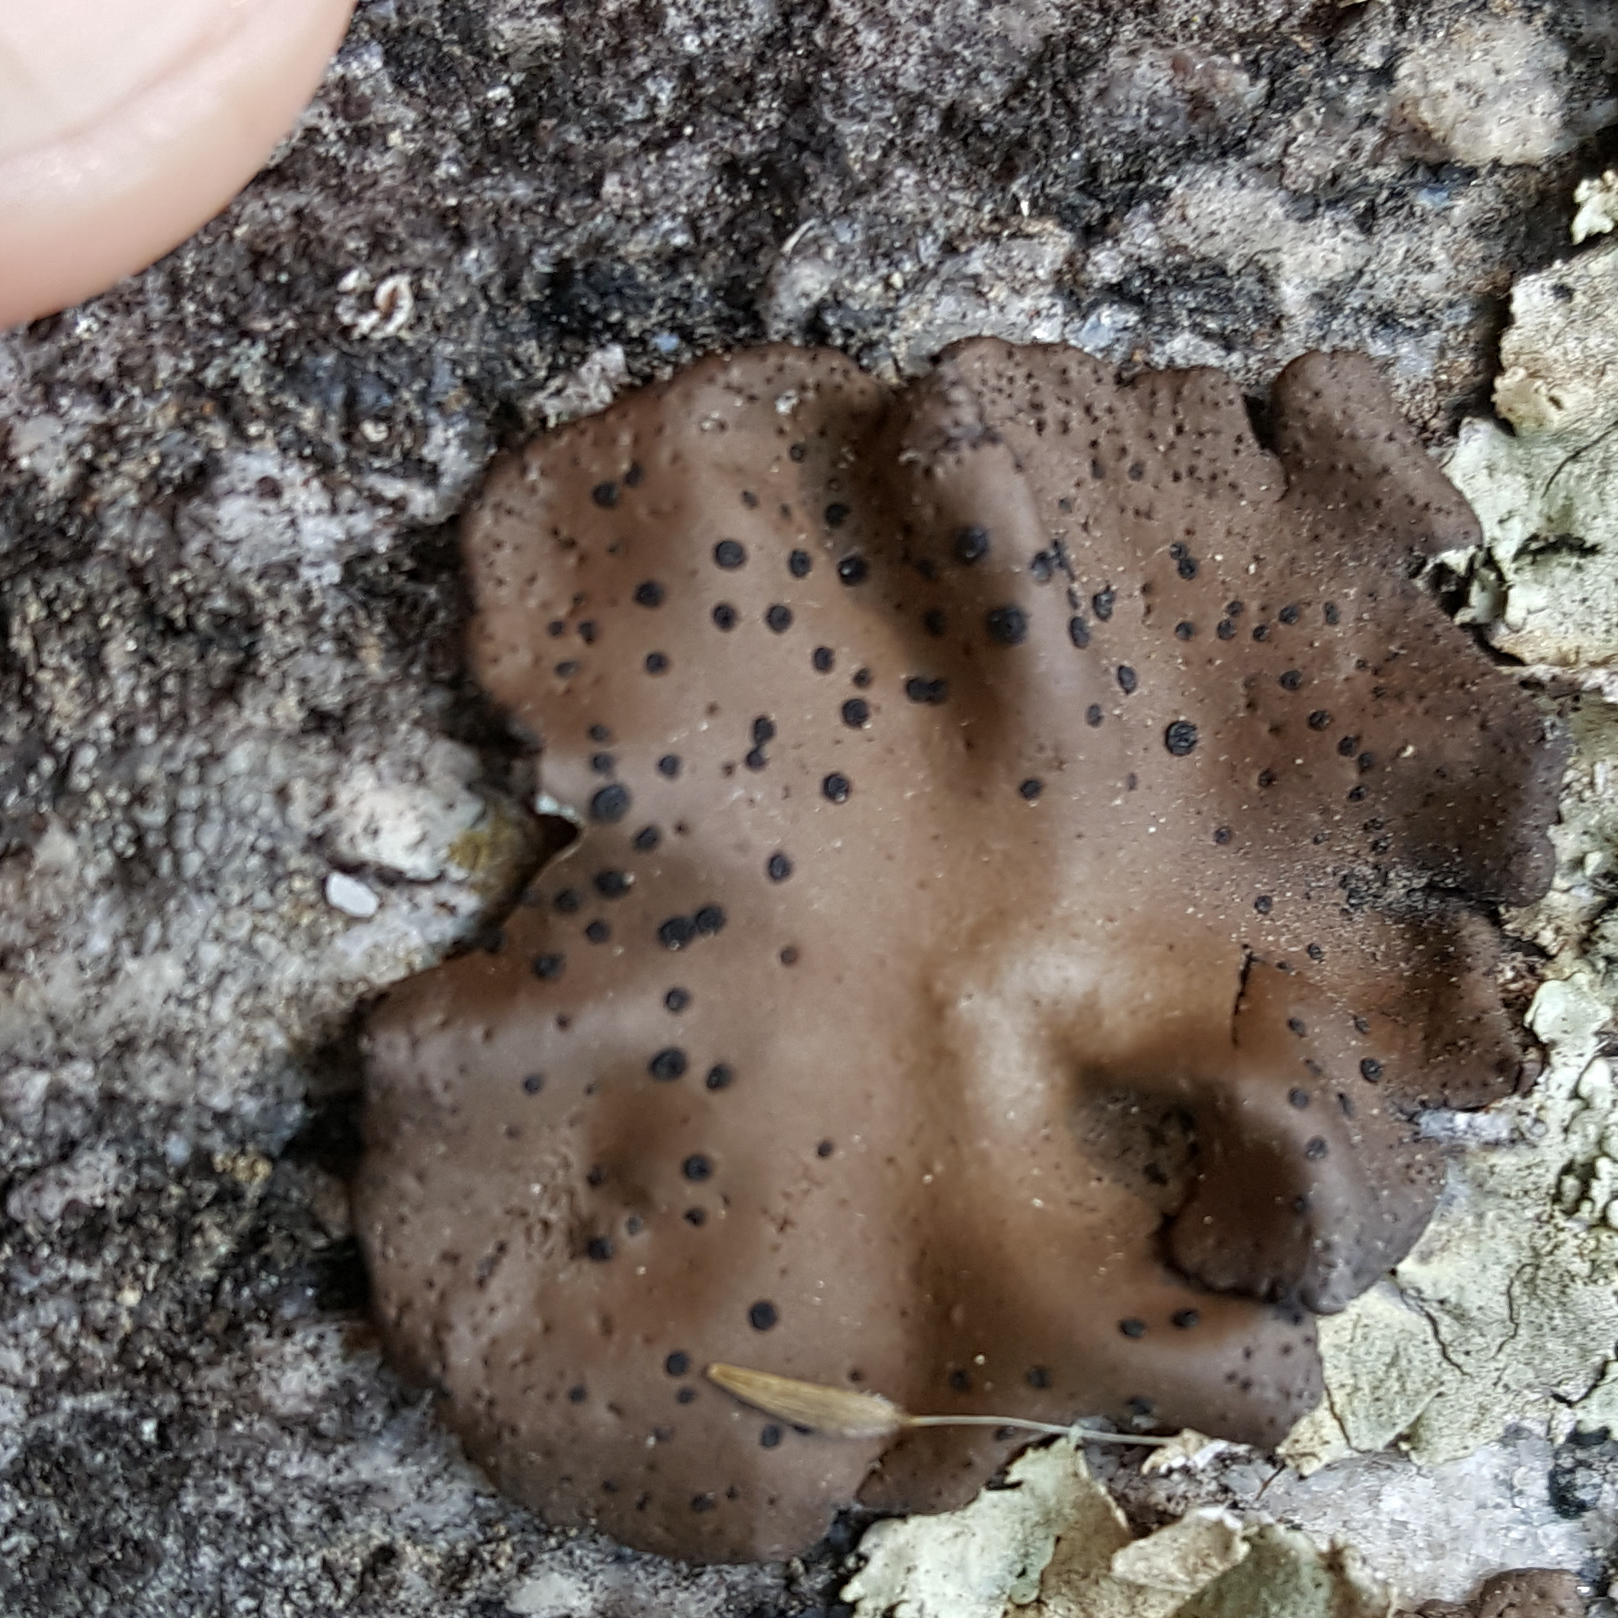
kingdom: Fungi
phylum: Ascomycota
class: Lecanoromycetes
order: Umbilicariales
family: Umbilicariaceae
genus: Umbilicaria
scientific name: Umbilicaria phaea
